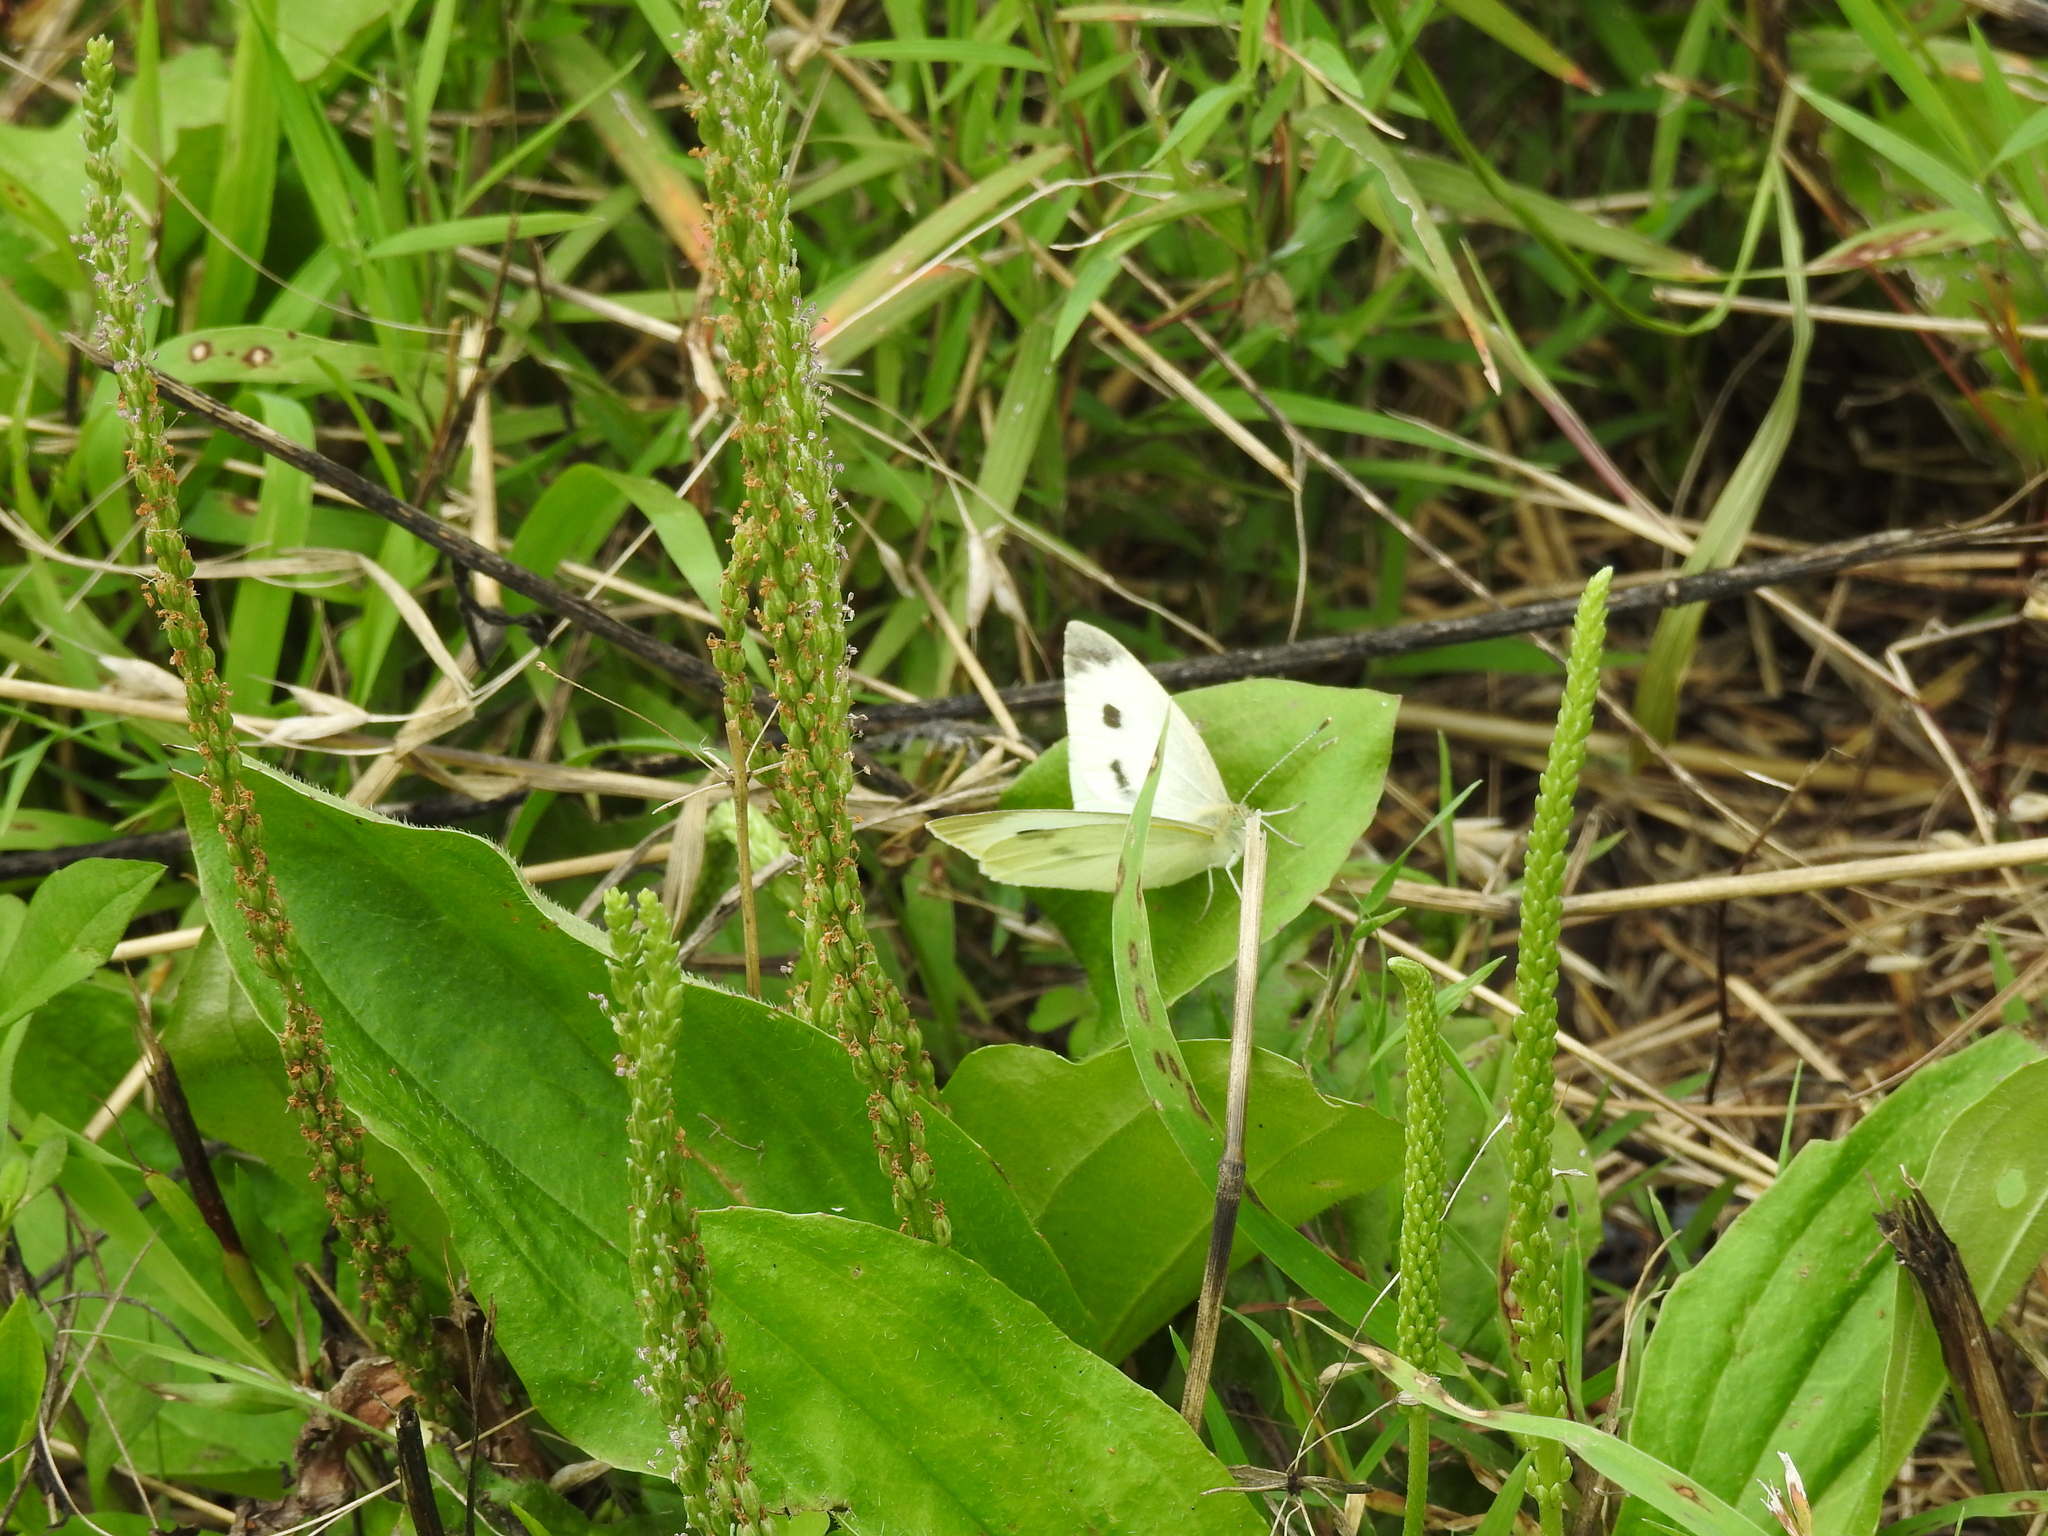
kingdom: Animalia
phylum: Arthropoda
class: Insecta
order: Lepidoptera
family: Pieridae
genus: Pieris
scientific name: Pieris rapae
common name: Small white
